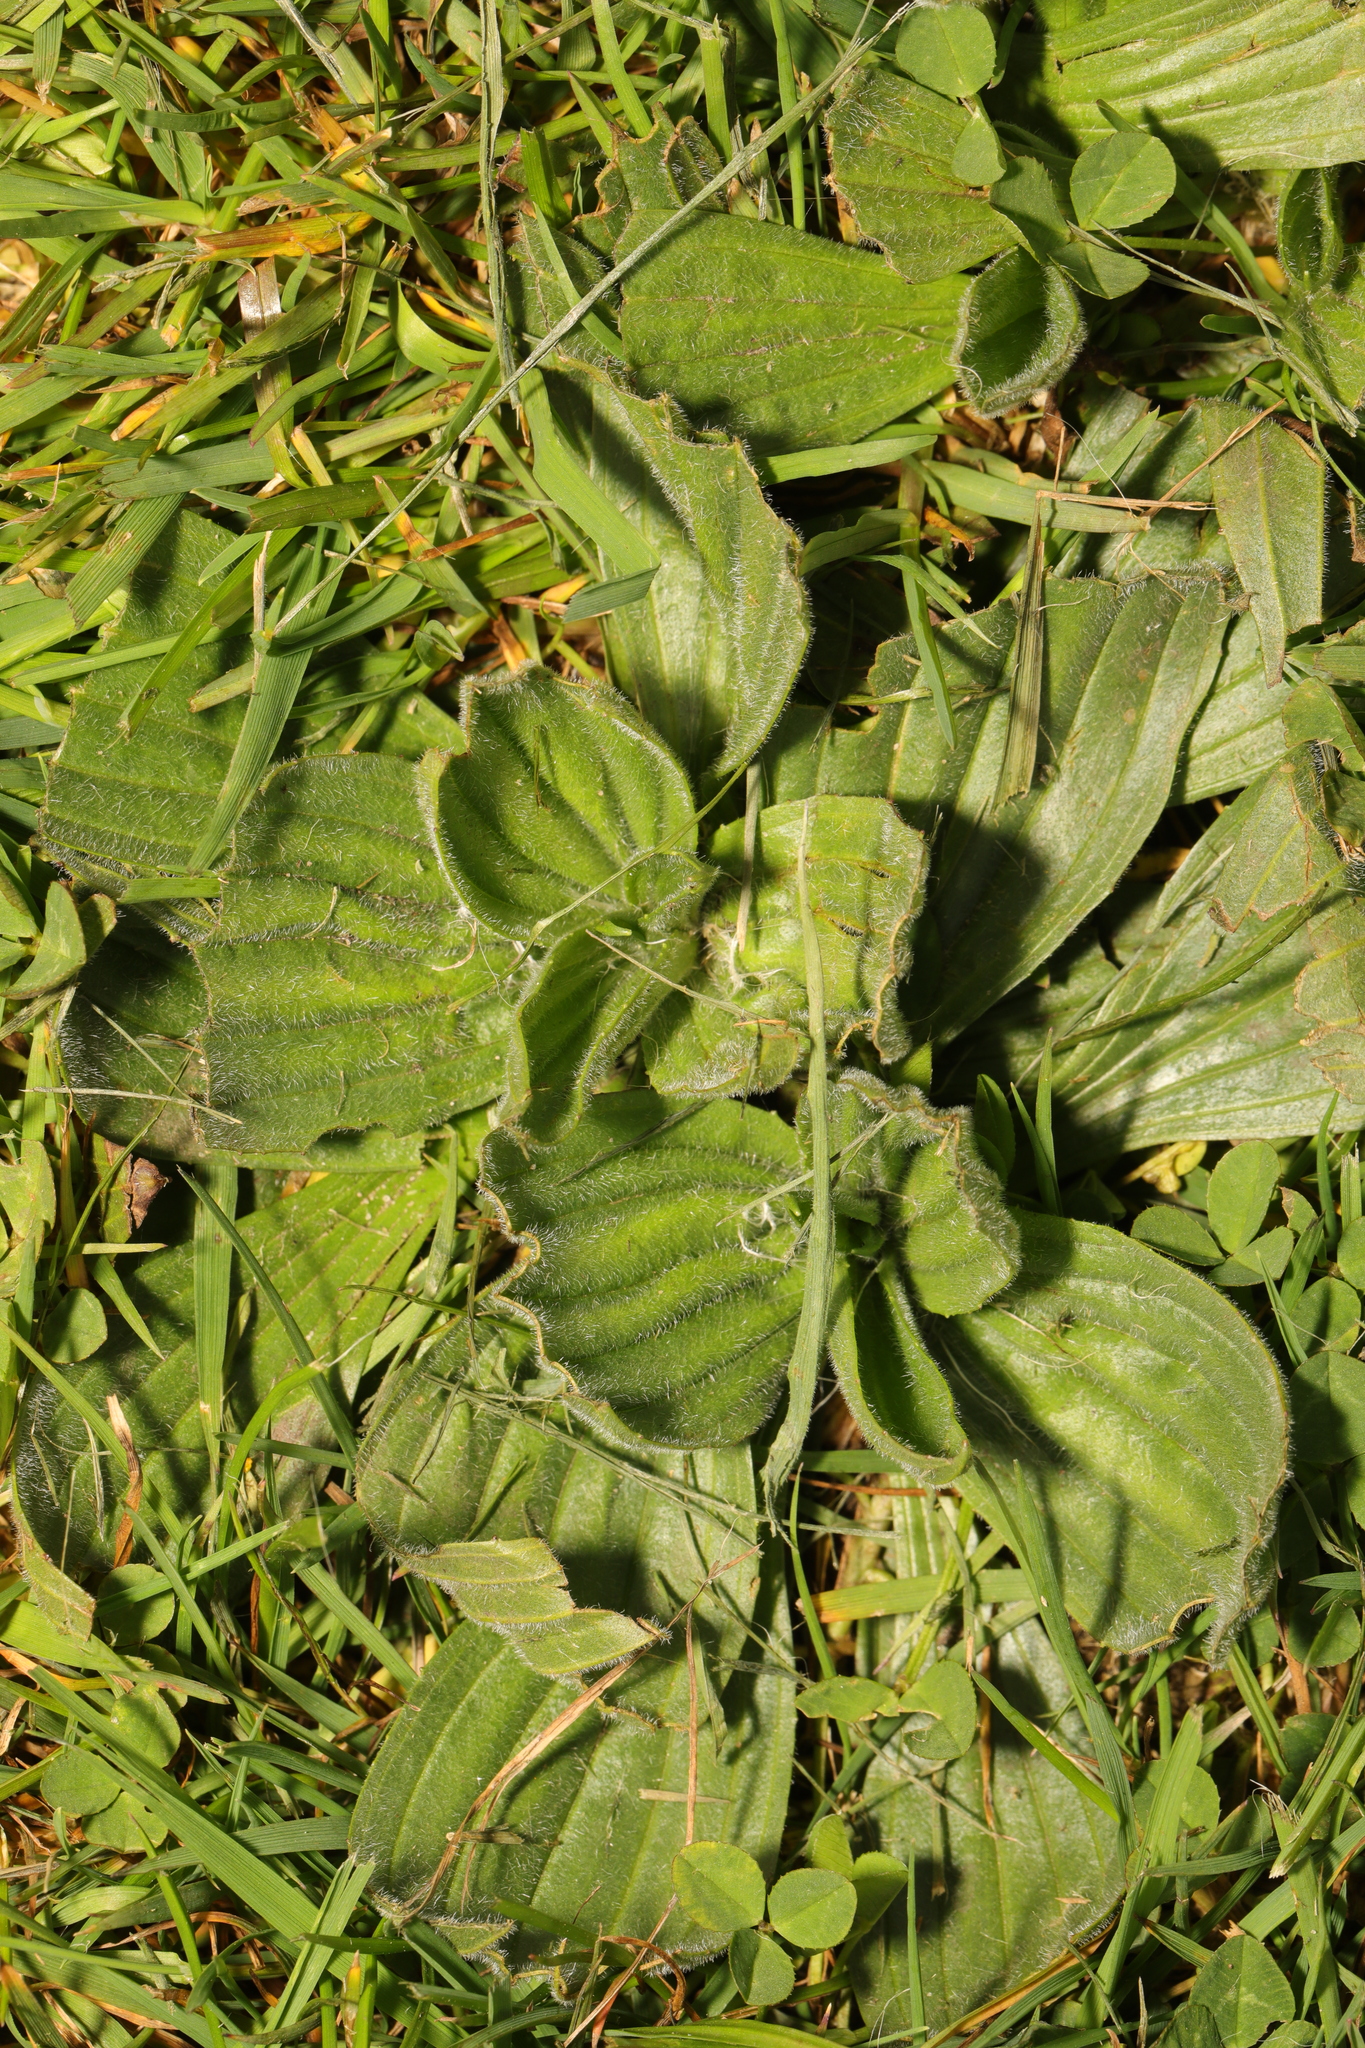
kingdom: Plantae
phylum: Tracheophyta
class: Magnoliopsida
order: Lamiales
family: Plantaginaceae
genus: Plantago
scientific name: Plantago lanceolata
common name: Ribwort plantain
